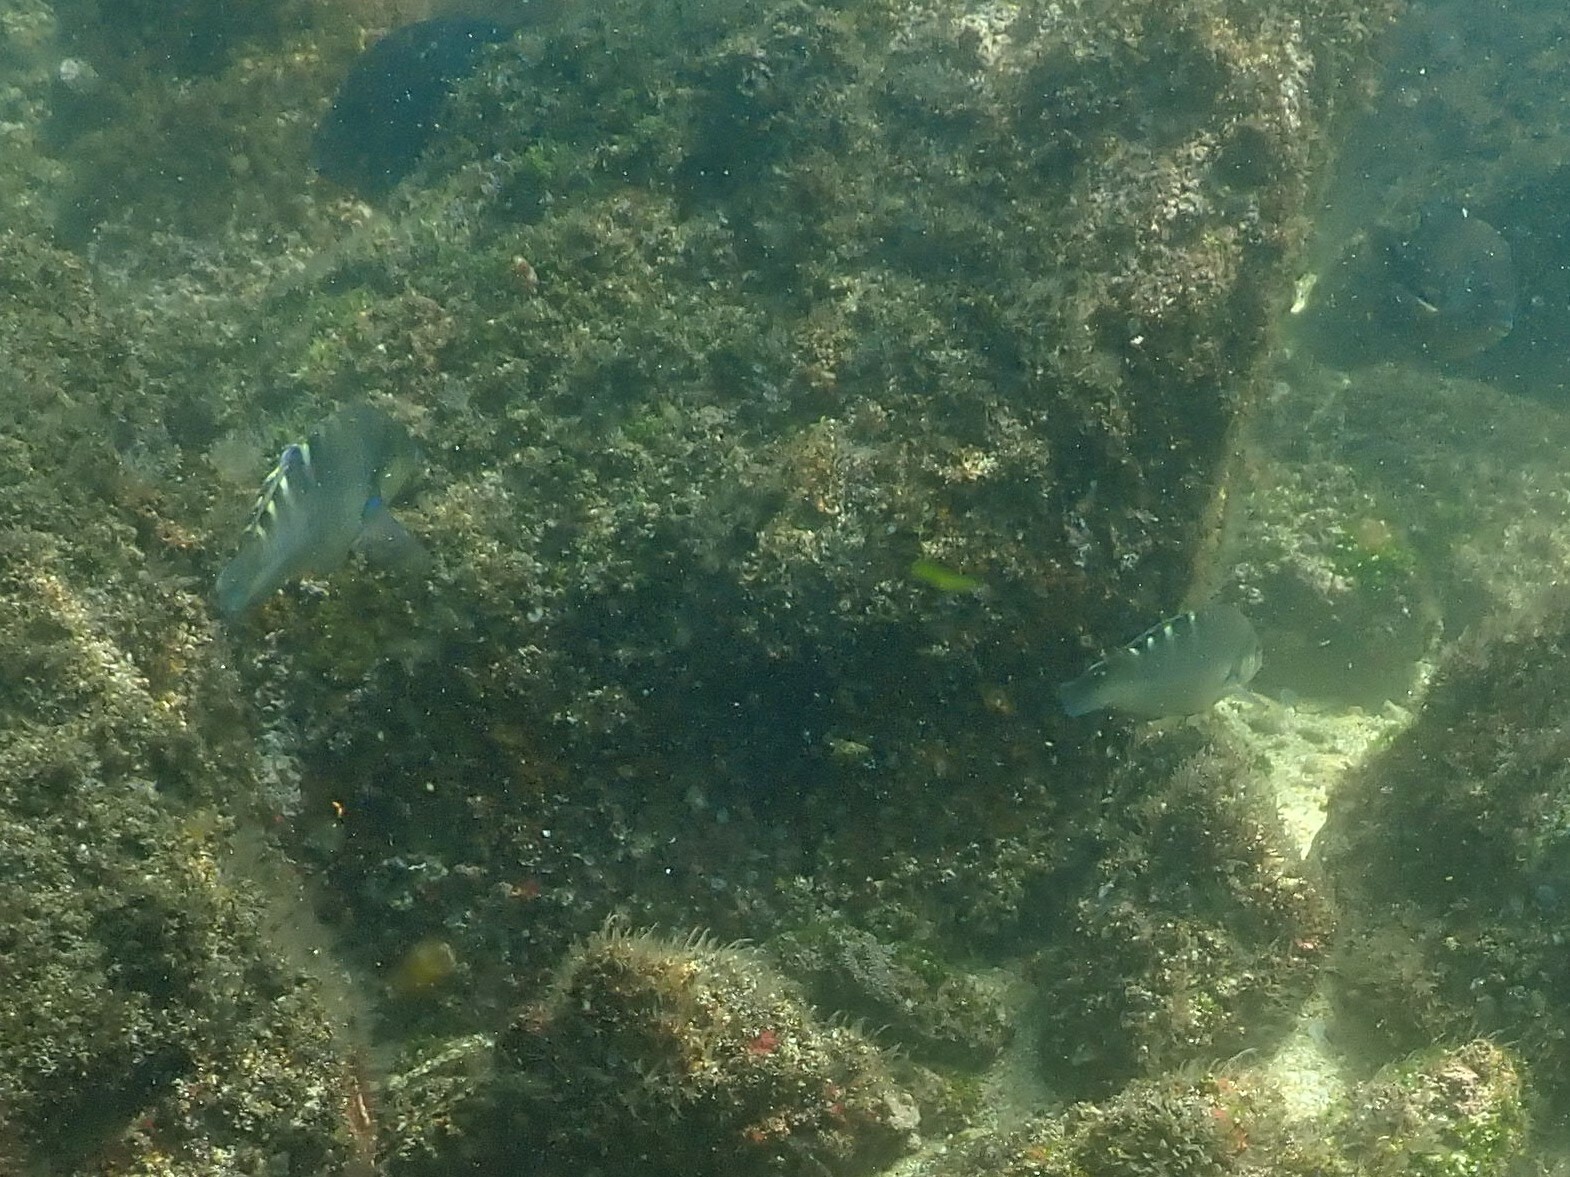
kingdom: Animalia
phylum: Chordata
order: Perciformes
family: Labridae
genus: Halichoeres
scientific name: Halichoeres notospilus
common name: Banded wrasse
